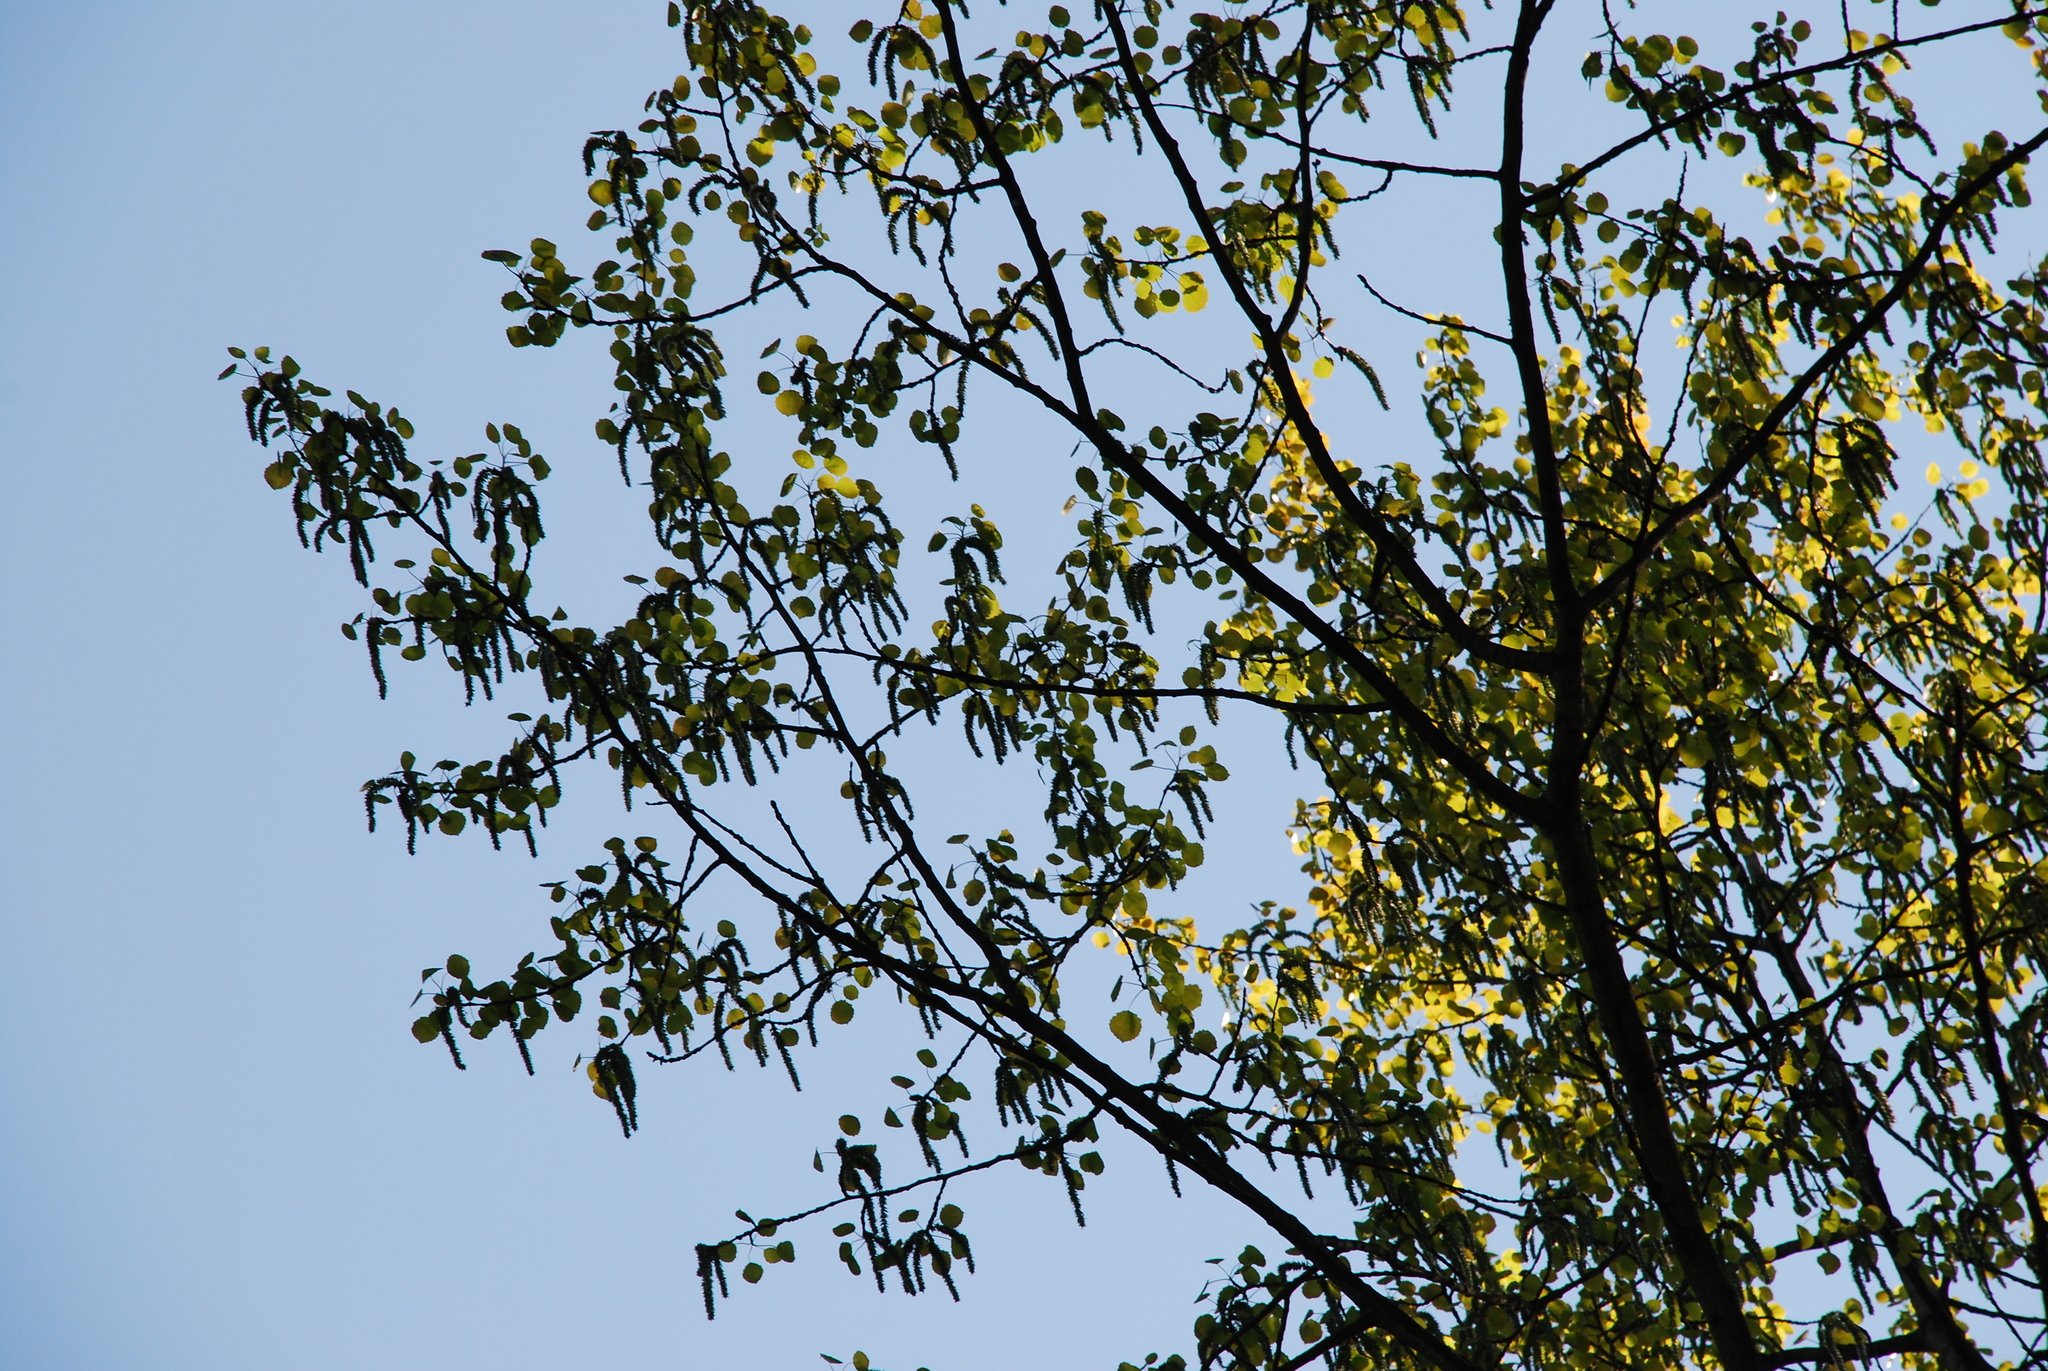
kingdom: Plantae
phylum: Tracheophyta
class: Magnoliopsida
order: Malpighiales
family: Salicaceae
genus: Populus
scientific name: Populus tremula
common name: European aspen
